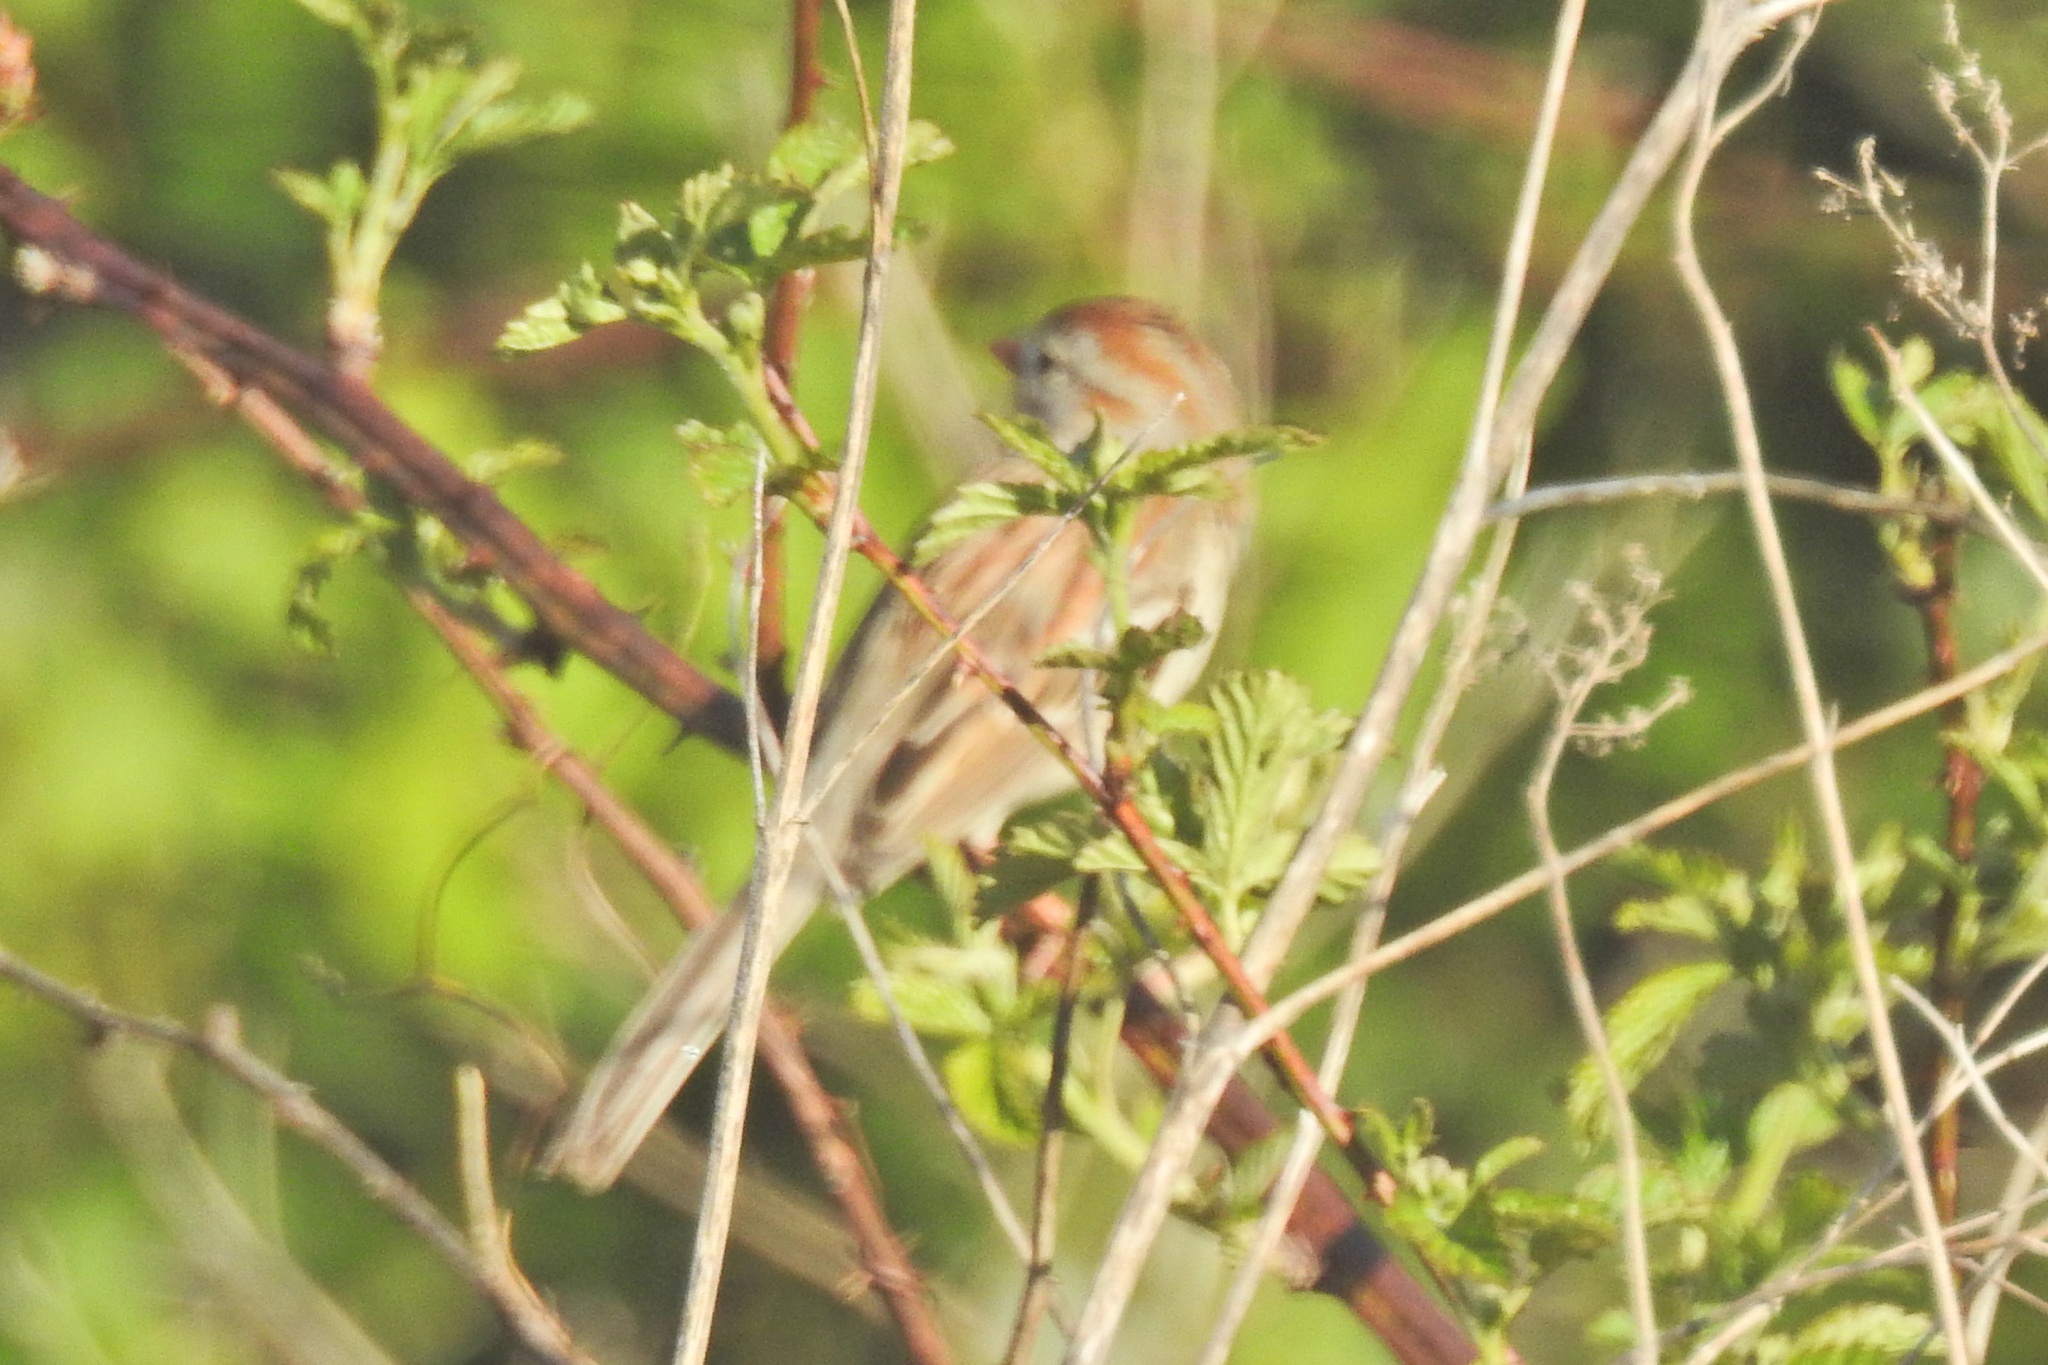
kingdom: Animalia
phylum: Chordata
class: Aves
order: Passeriformes
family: Passerellidae
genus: Spizella
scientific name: Spizella pusilla
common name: Field sparrow
